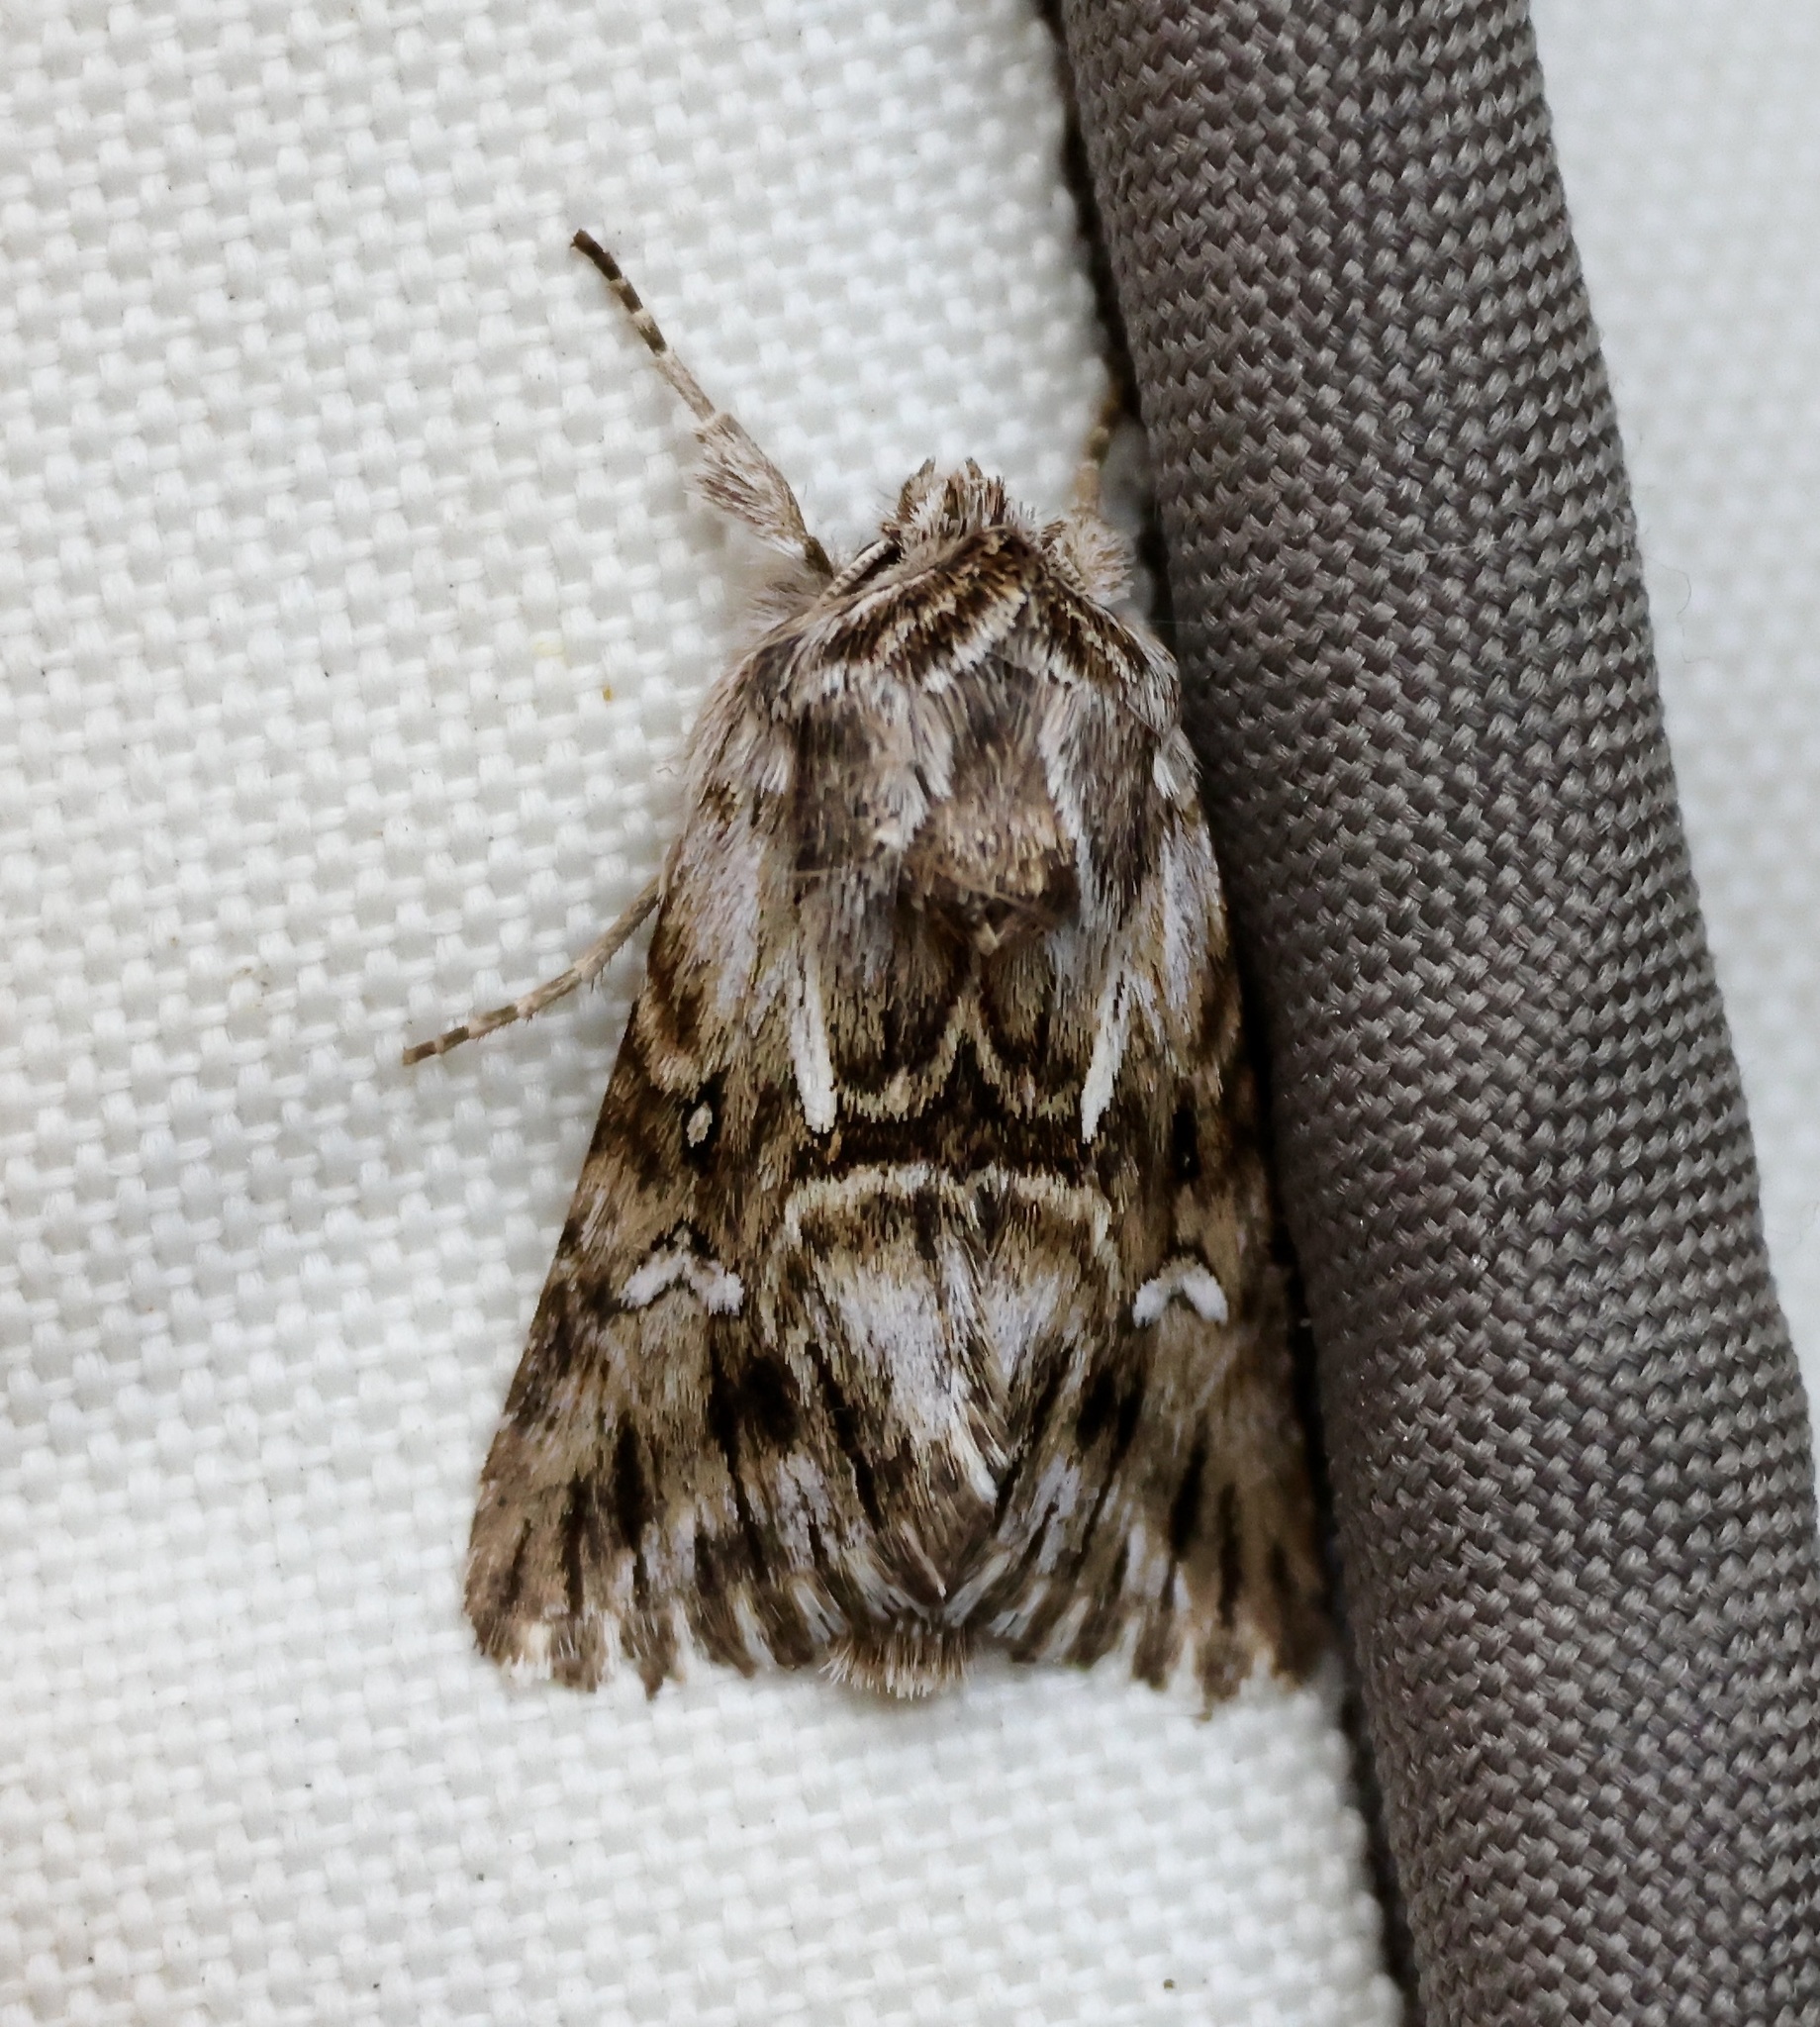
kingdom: Animalia
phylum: Arthropoda
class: Insecta
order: Lepidoptera
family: Noctuidae
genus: Calophasia
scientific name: Calophasia lunula
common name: Toadflax brocade
